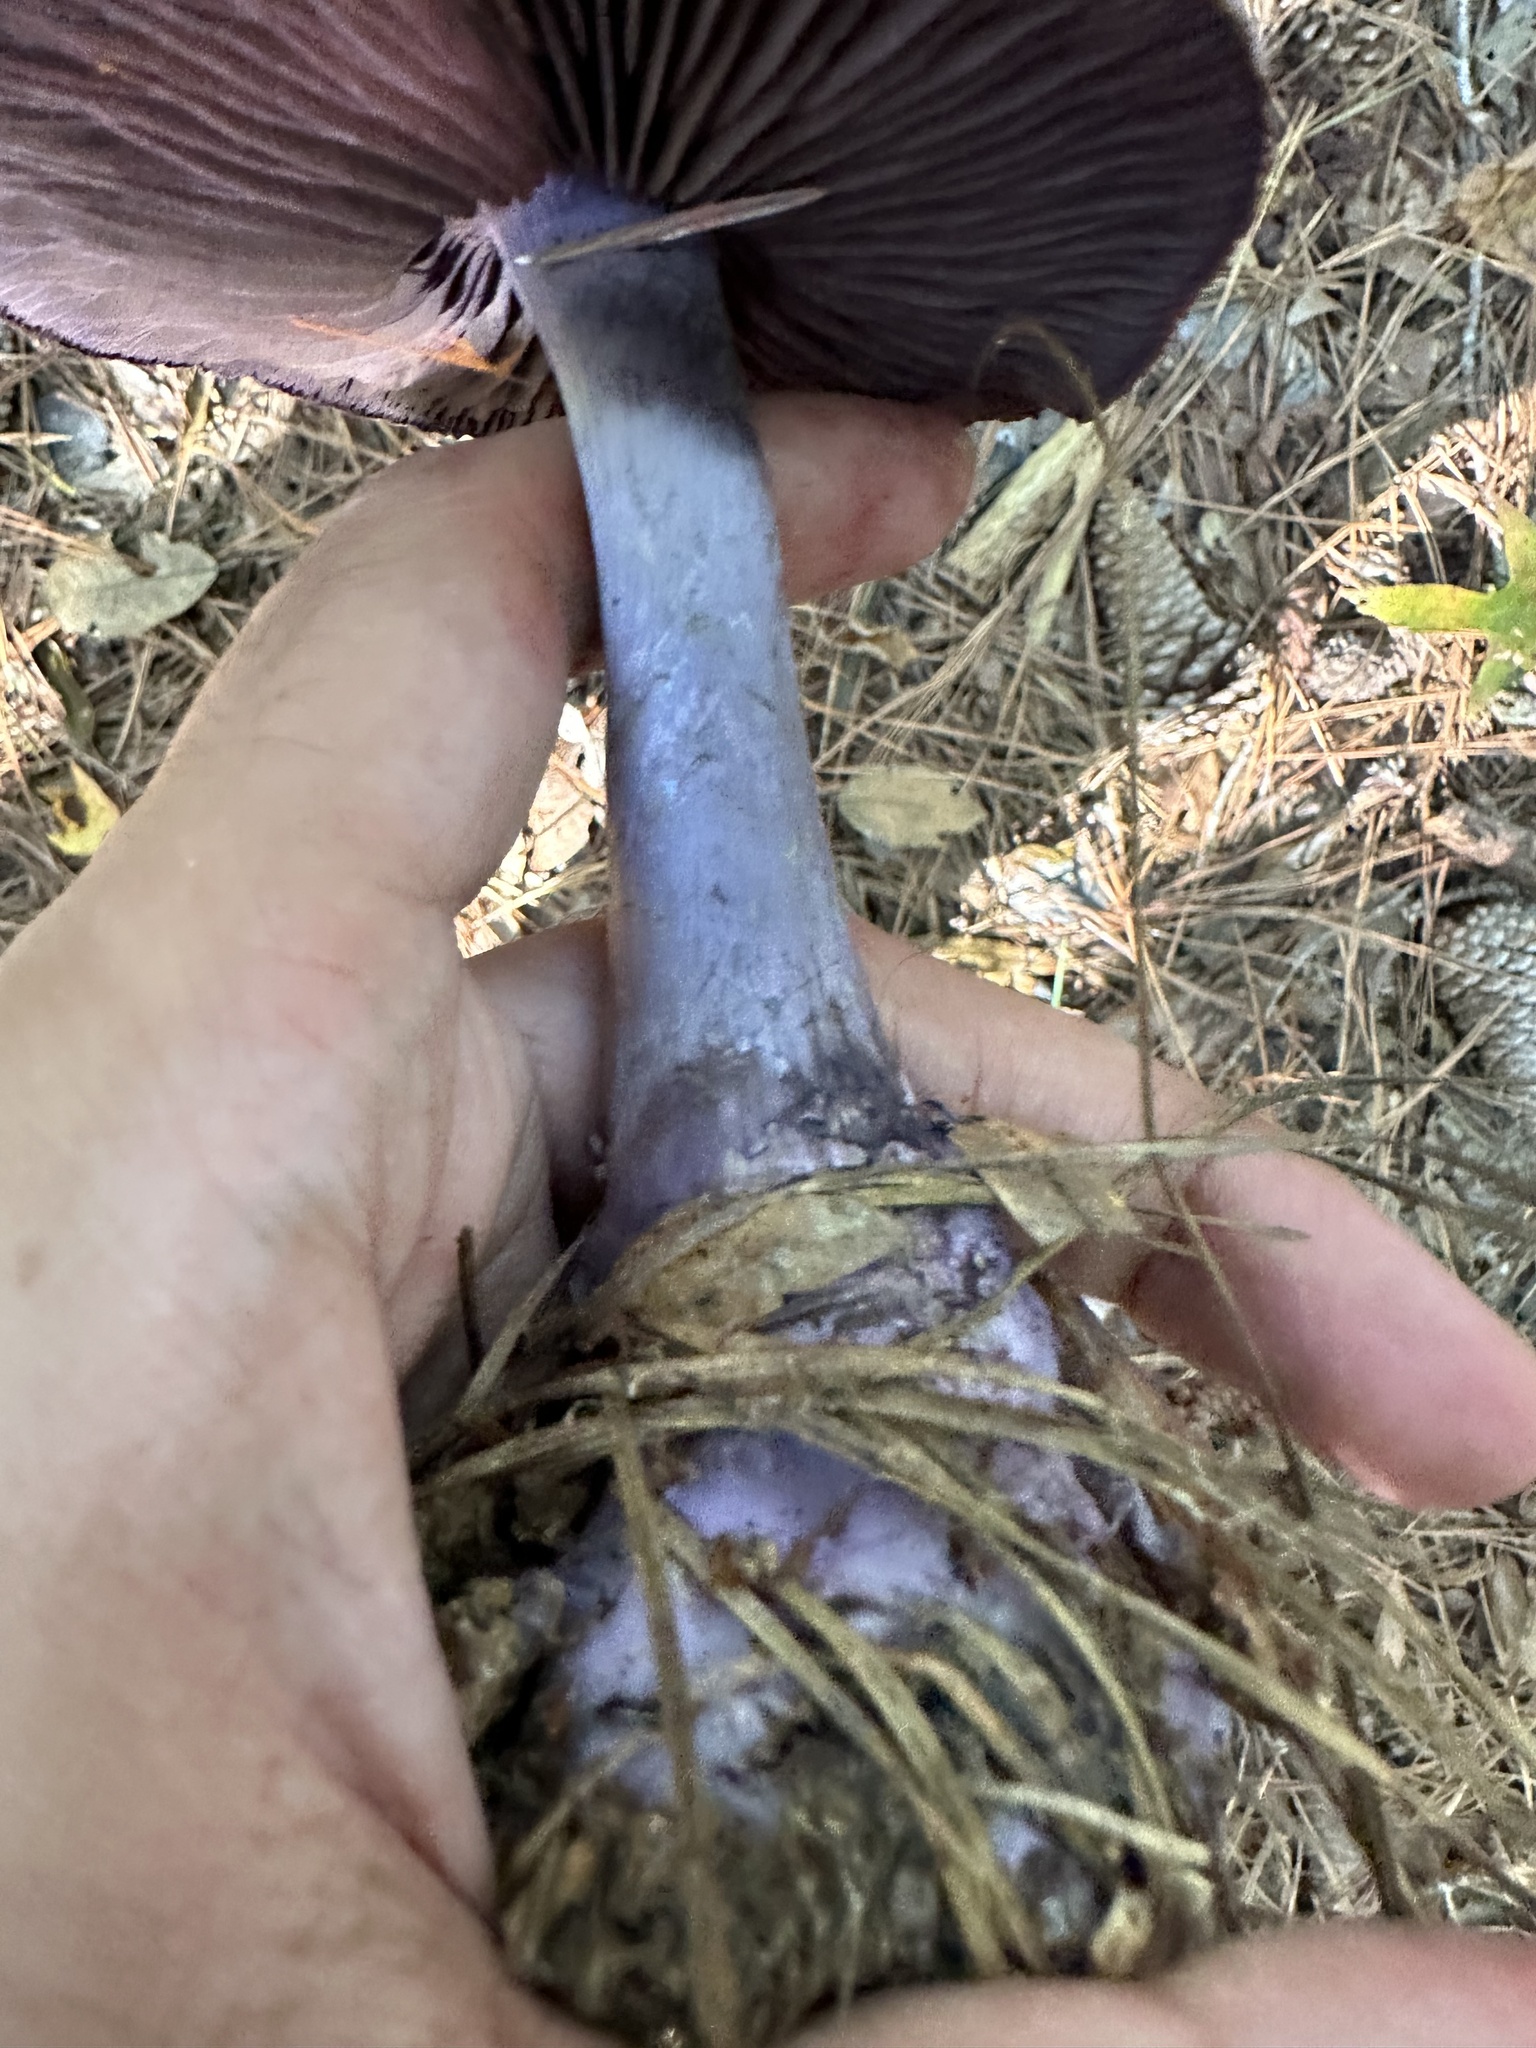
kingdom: Fungi
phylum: Basidiomycota
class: Agaricomycetes
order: Agaricales
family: Cortinariaceae
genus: Cortinarius
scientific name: Cortinarius violaceus
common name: Violet webcap
